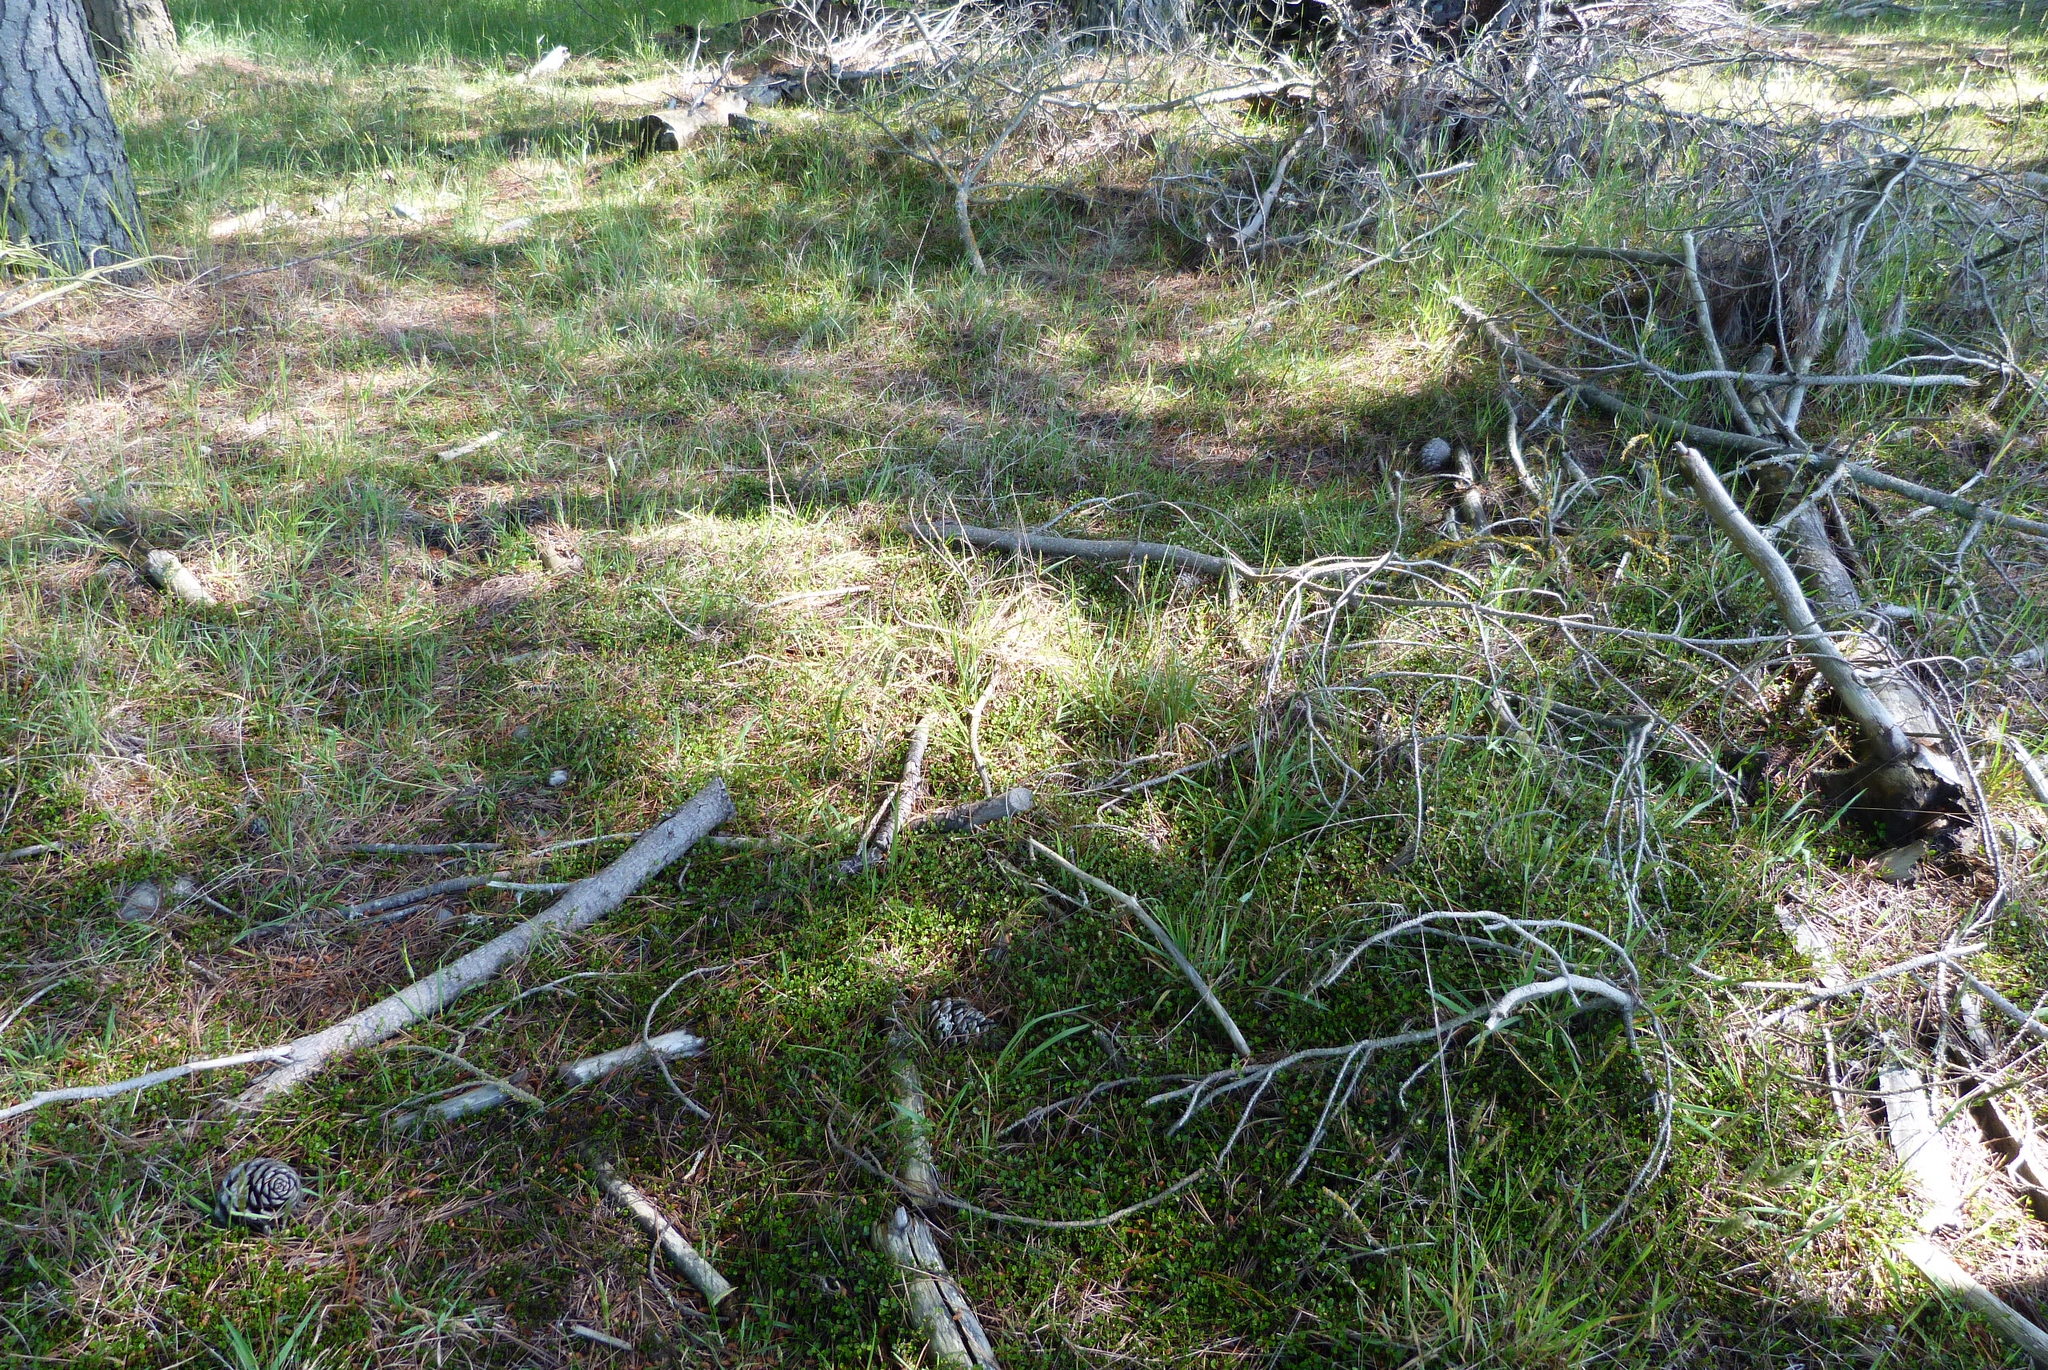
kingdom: Plantae
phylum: Tracheophyta
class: Magnoliopsida
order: Caryophyllales
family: Polygonaceae
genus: Muehlenbeckia
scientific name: Muehlenbeckia axillaris
